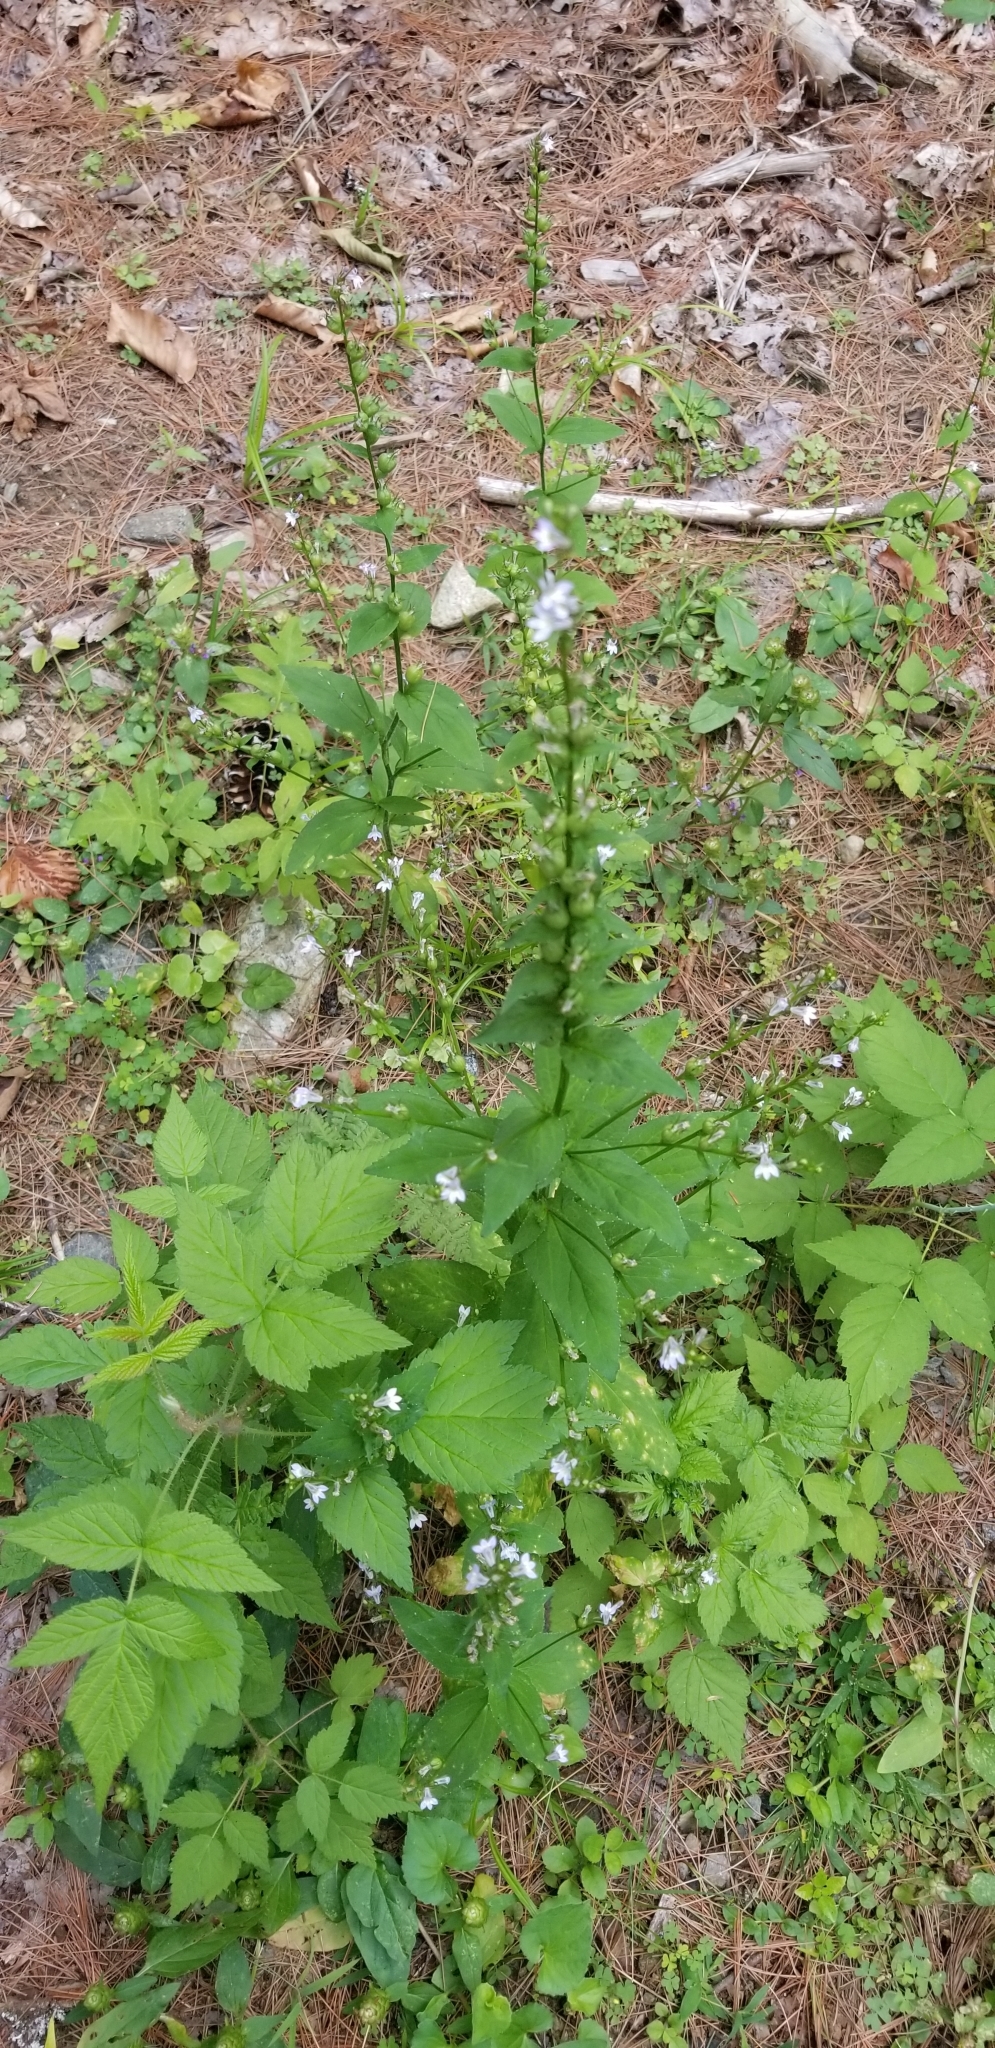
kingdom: Plantae
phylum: Tracheophyta
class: Magnoliopsida
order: Asterales
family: Campanulaceae
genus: Lobelia
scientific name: Lobelia inflata
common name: Indian tobacco
